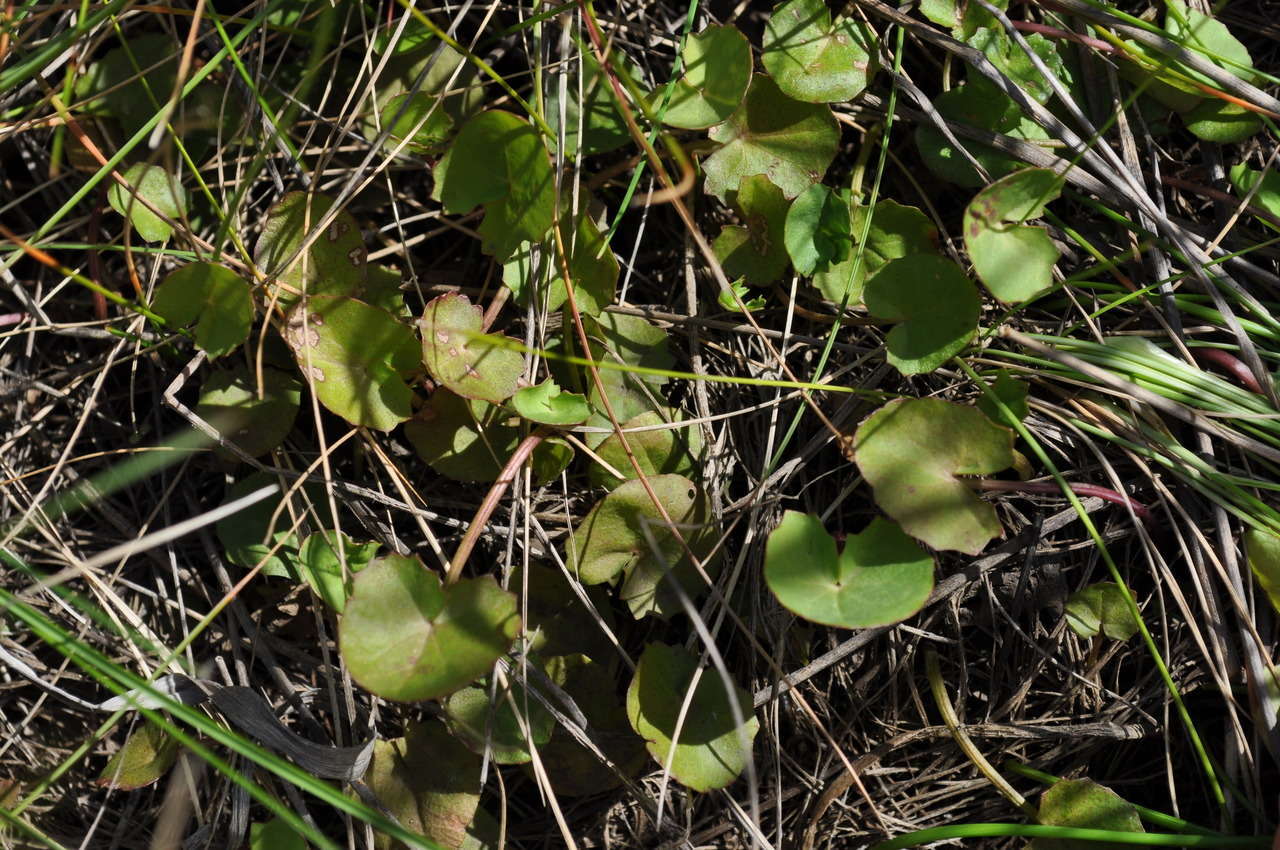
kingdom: Plantae
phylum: Tracheophyta
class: Magnoliopsida
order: Apiales
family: Apiaceae
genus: Centella
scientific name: Centella cordifolia
